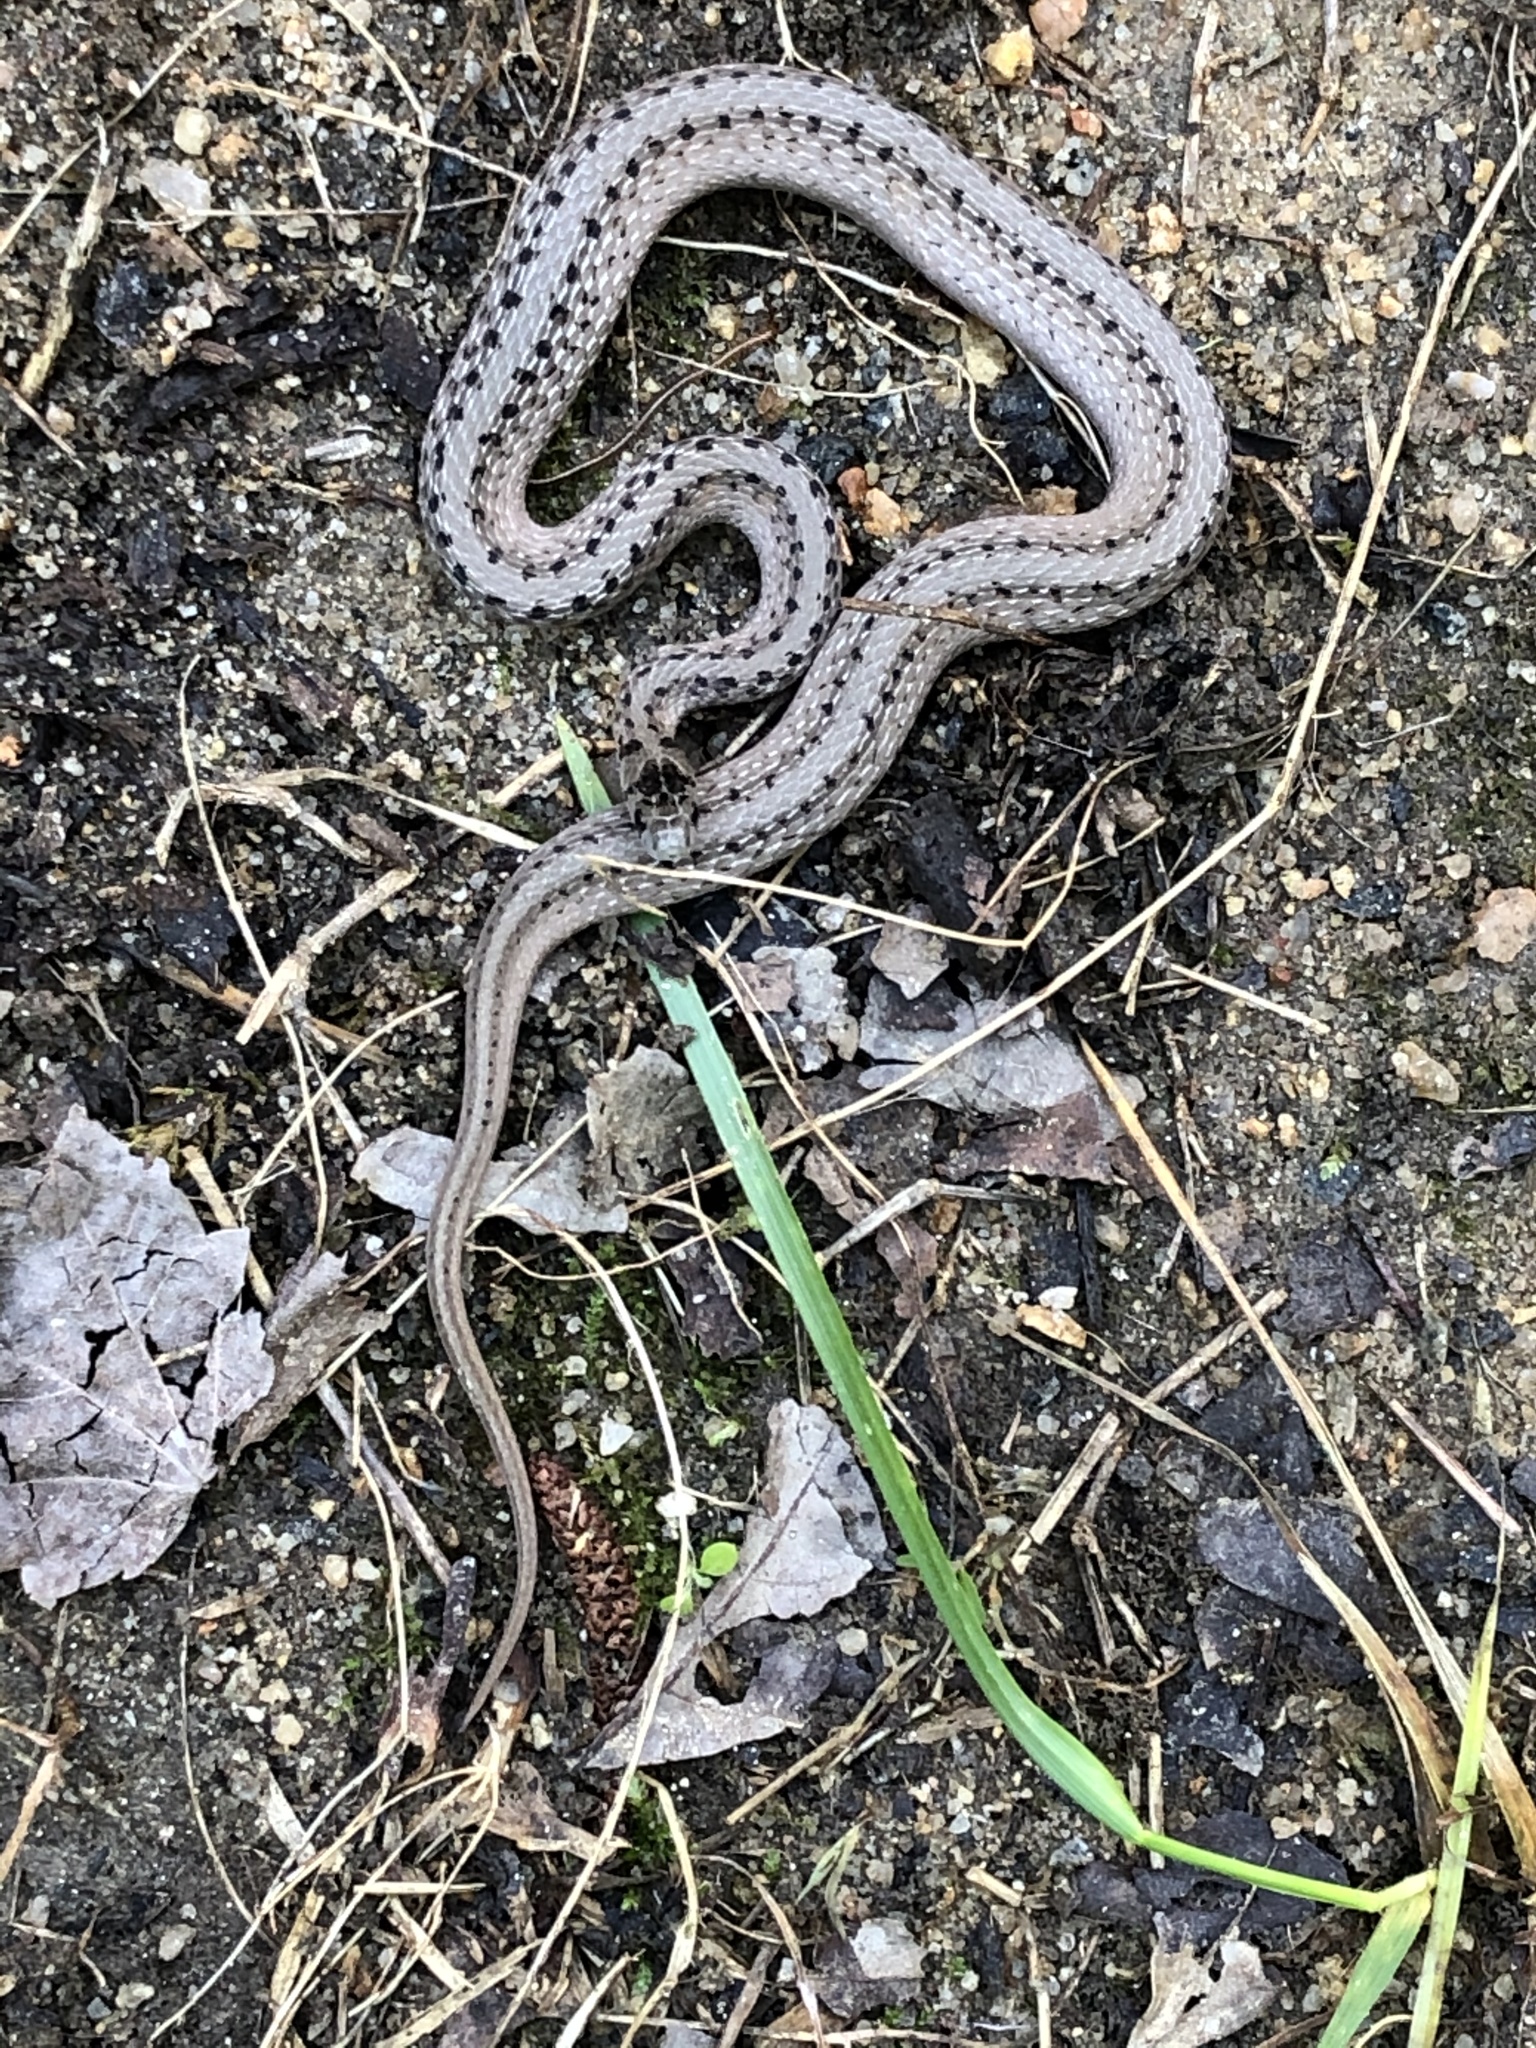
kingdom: Animalia
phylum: Chordata
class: Squamata
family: Colubridae
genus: Storeria
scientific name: Storeria dekayi
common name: (dekay’s) brown snake
